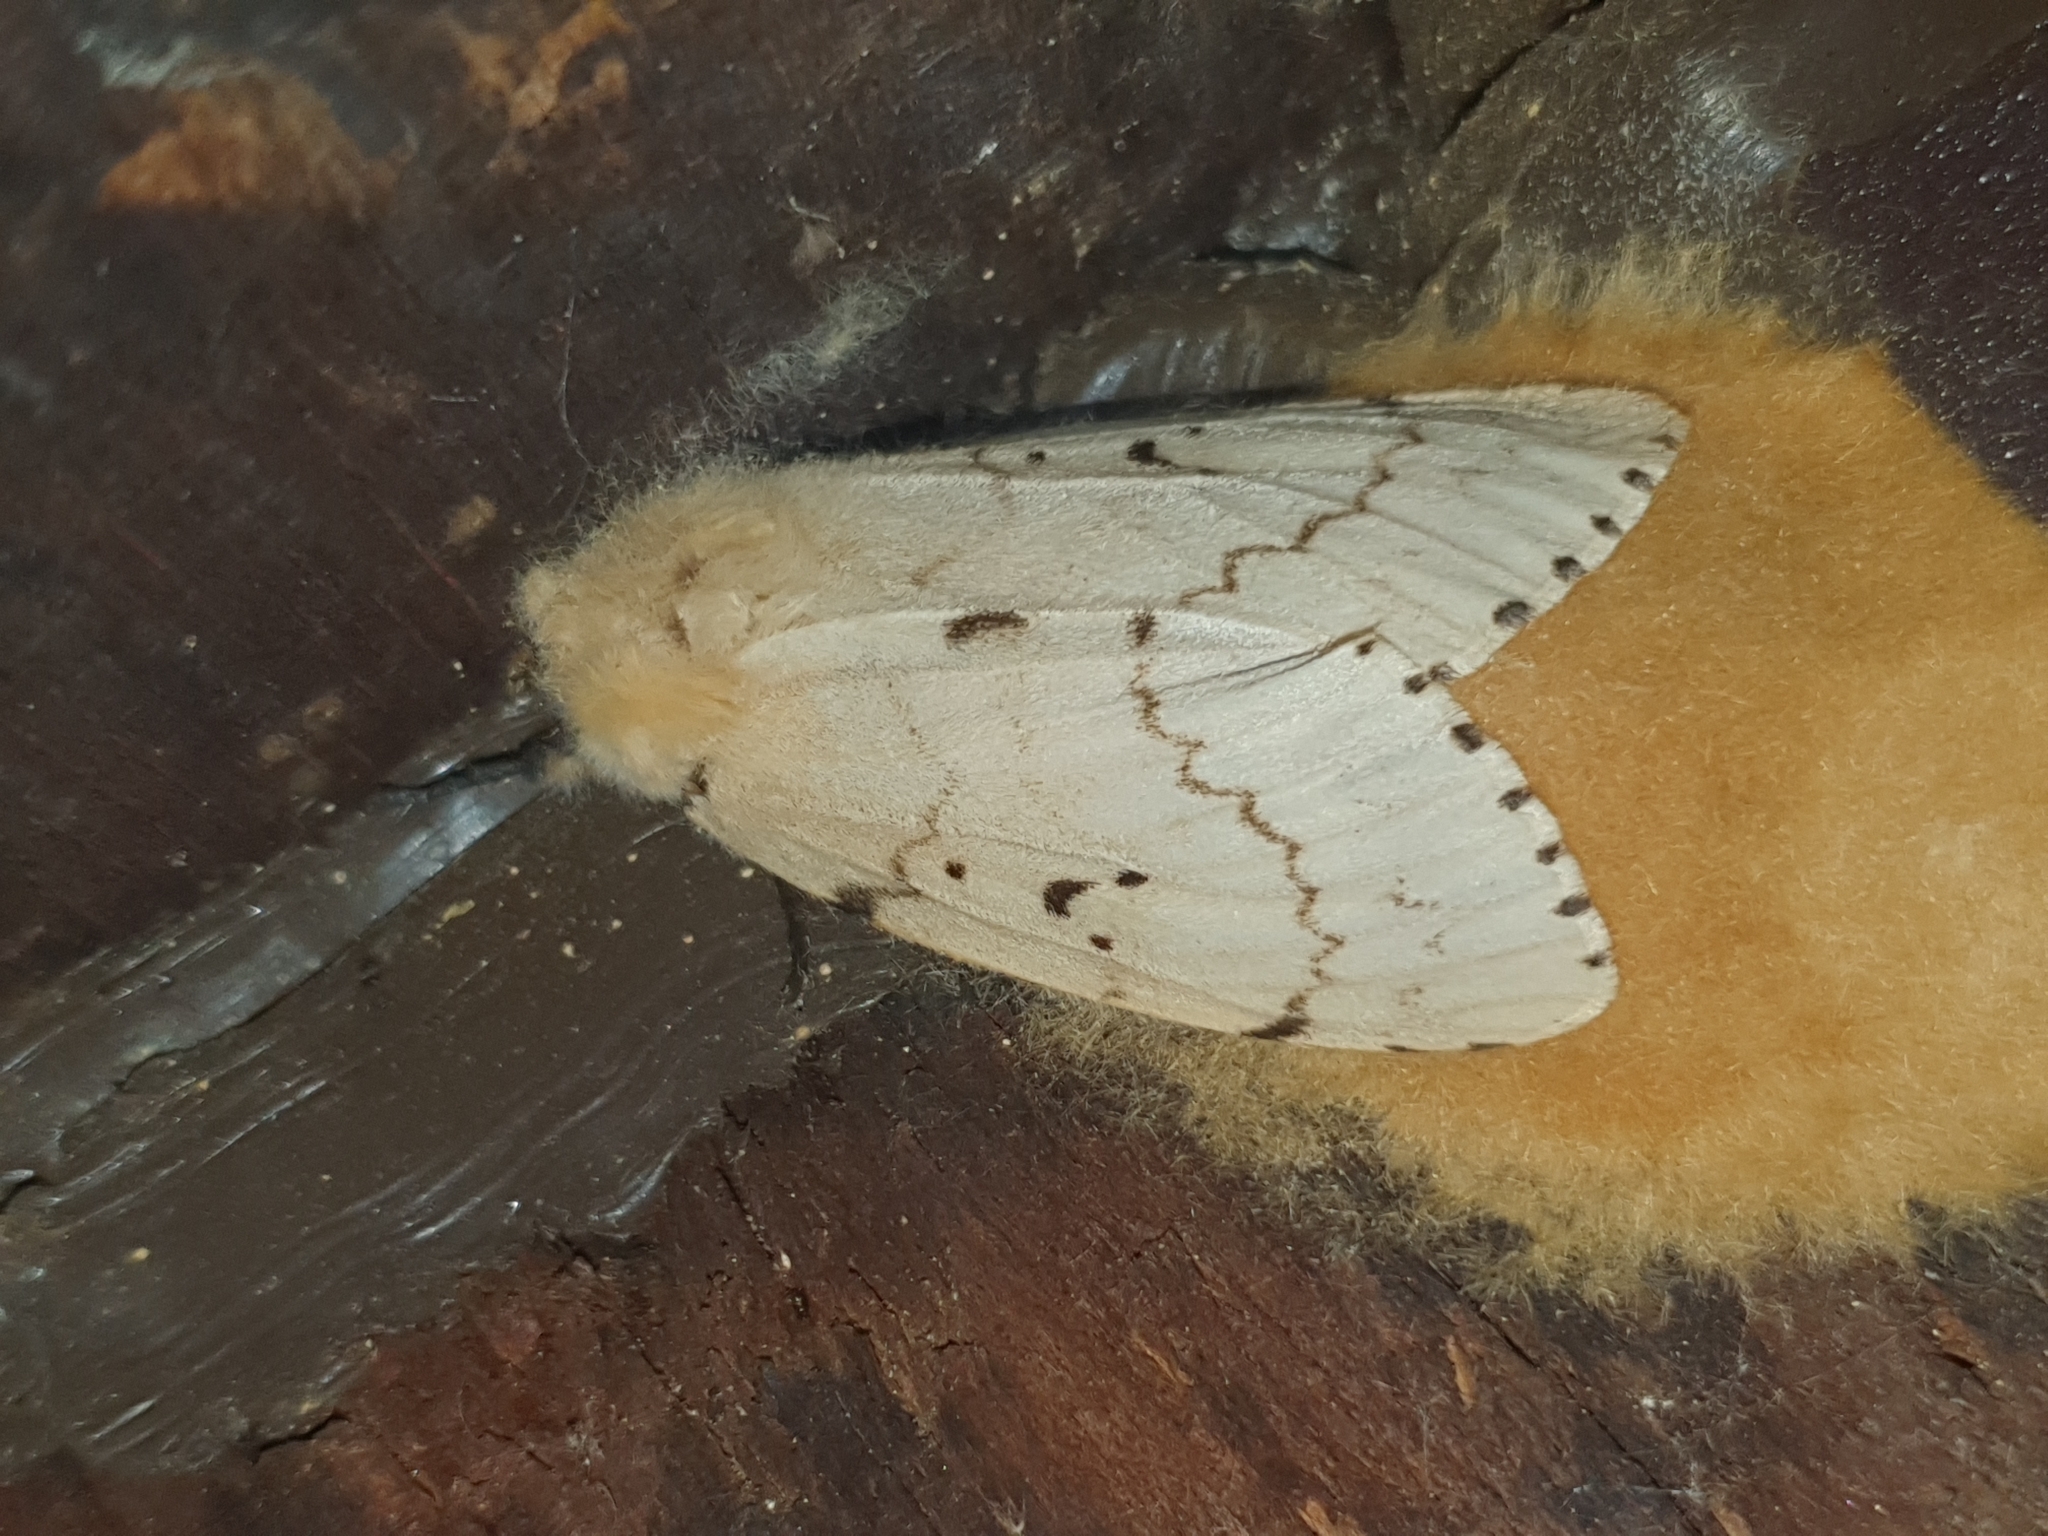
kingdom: Animalia
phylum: Arthropoda
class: Insecta
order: Lepidoptera
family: Erebidae
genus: Lymantria
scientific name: Lymantria dispar
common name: Gypsy moth
